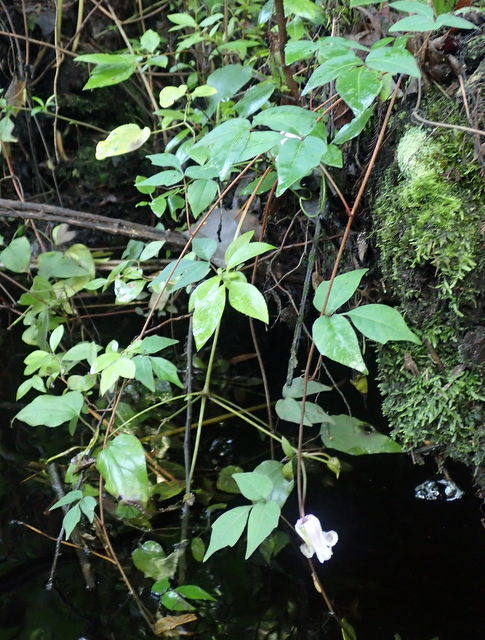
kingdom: Plantae
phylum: Tracheophyta
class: Magnoliopsida
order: Ranunculales
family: Ranunculaceae
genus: Clematis
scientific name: Clematis crispa
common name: Curly clematis
